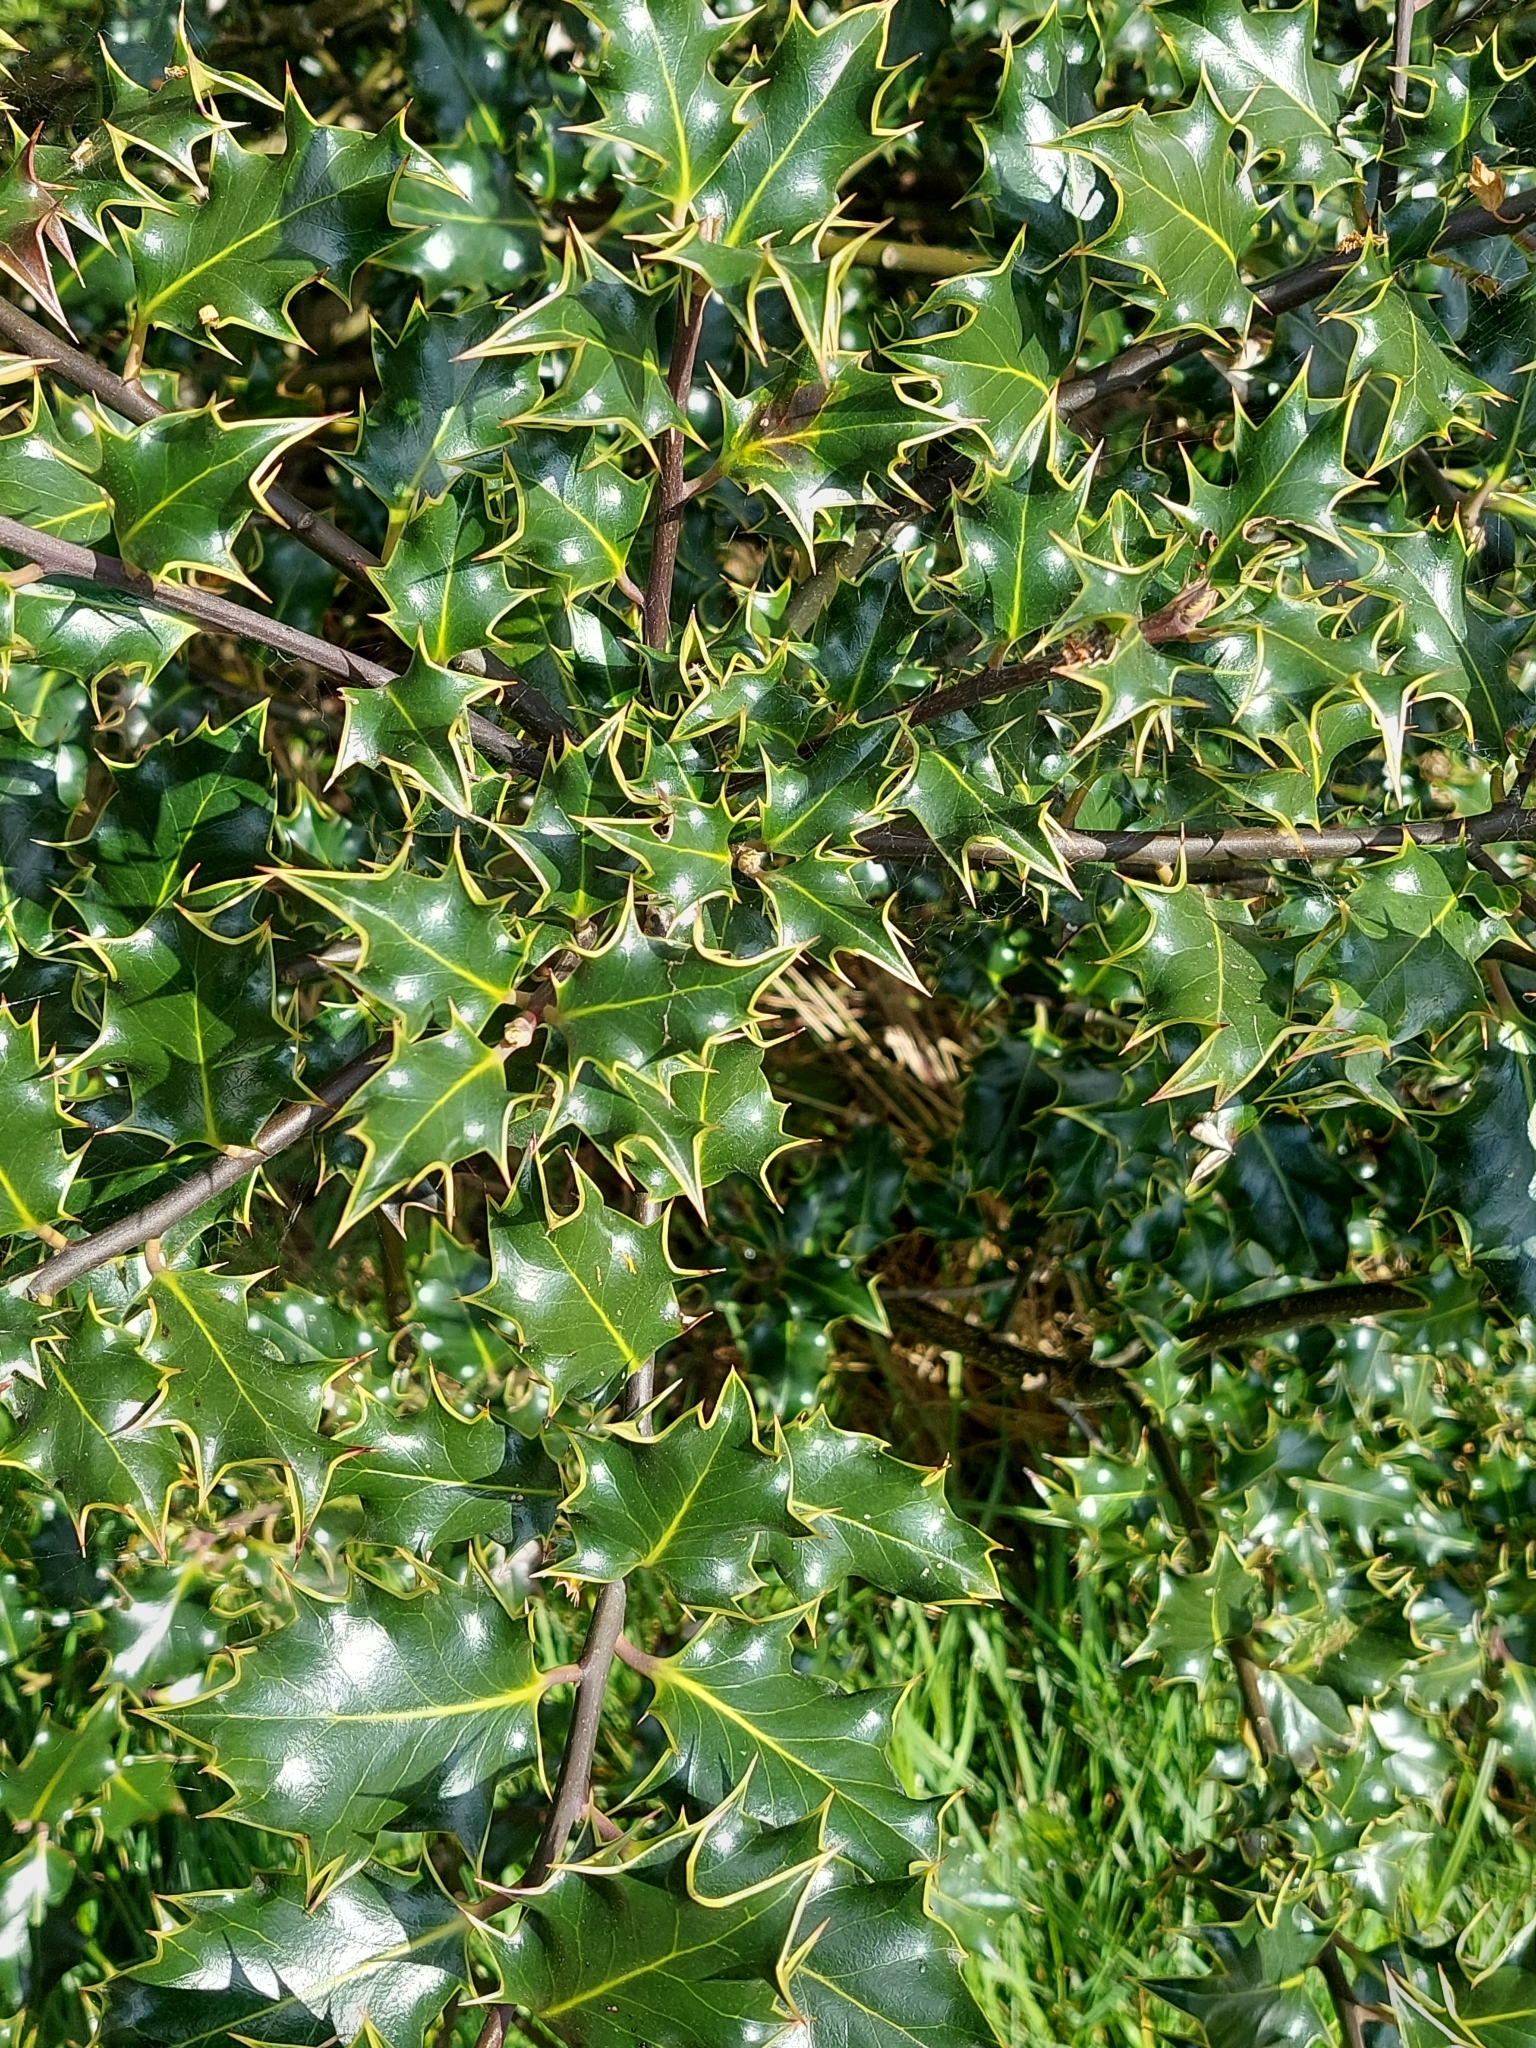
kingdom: Plantae
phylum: Tracheophyta
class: Magnoliopsida
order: Aquifoliales
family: Aquifoliaceae
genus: Ilex
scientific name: Ilex aquifolium
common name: English holly
